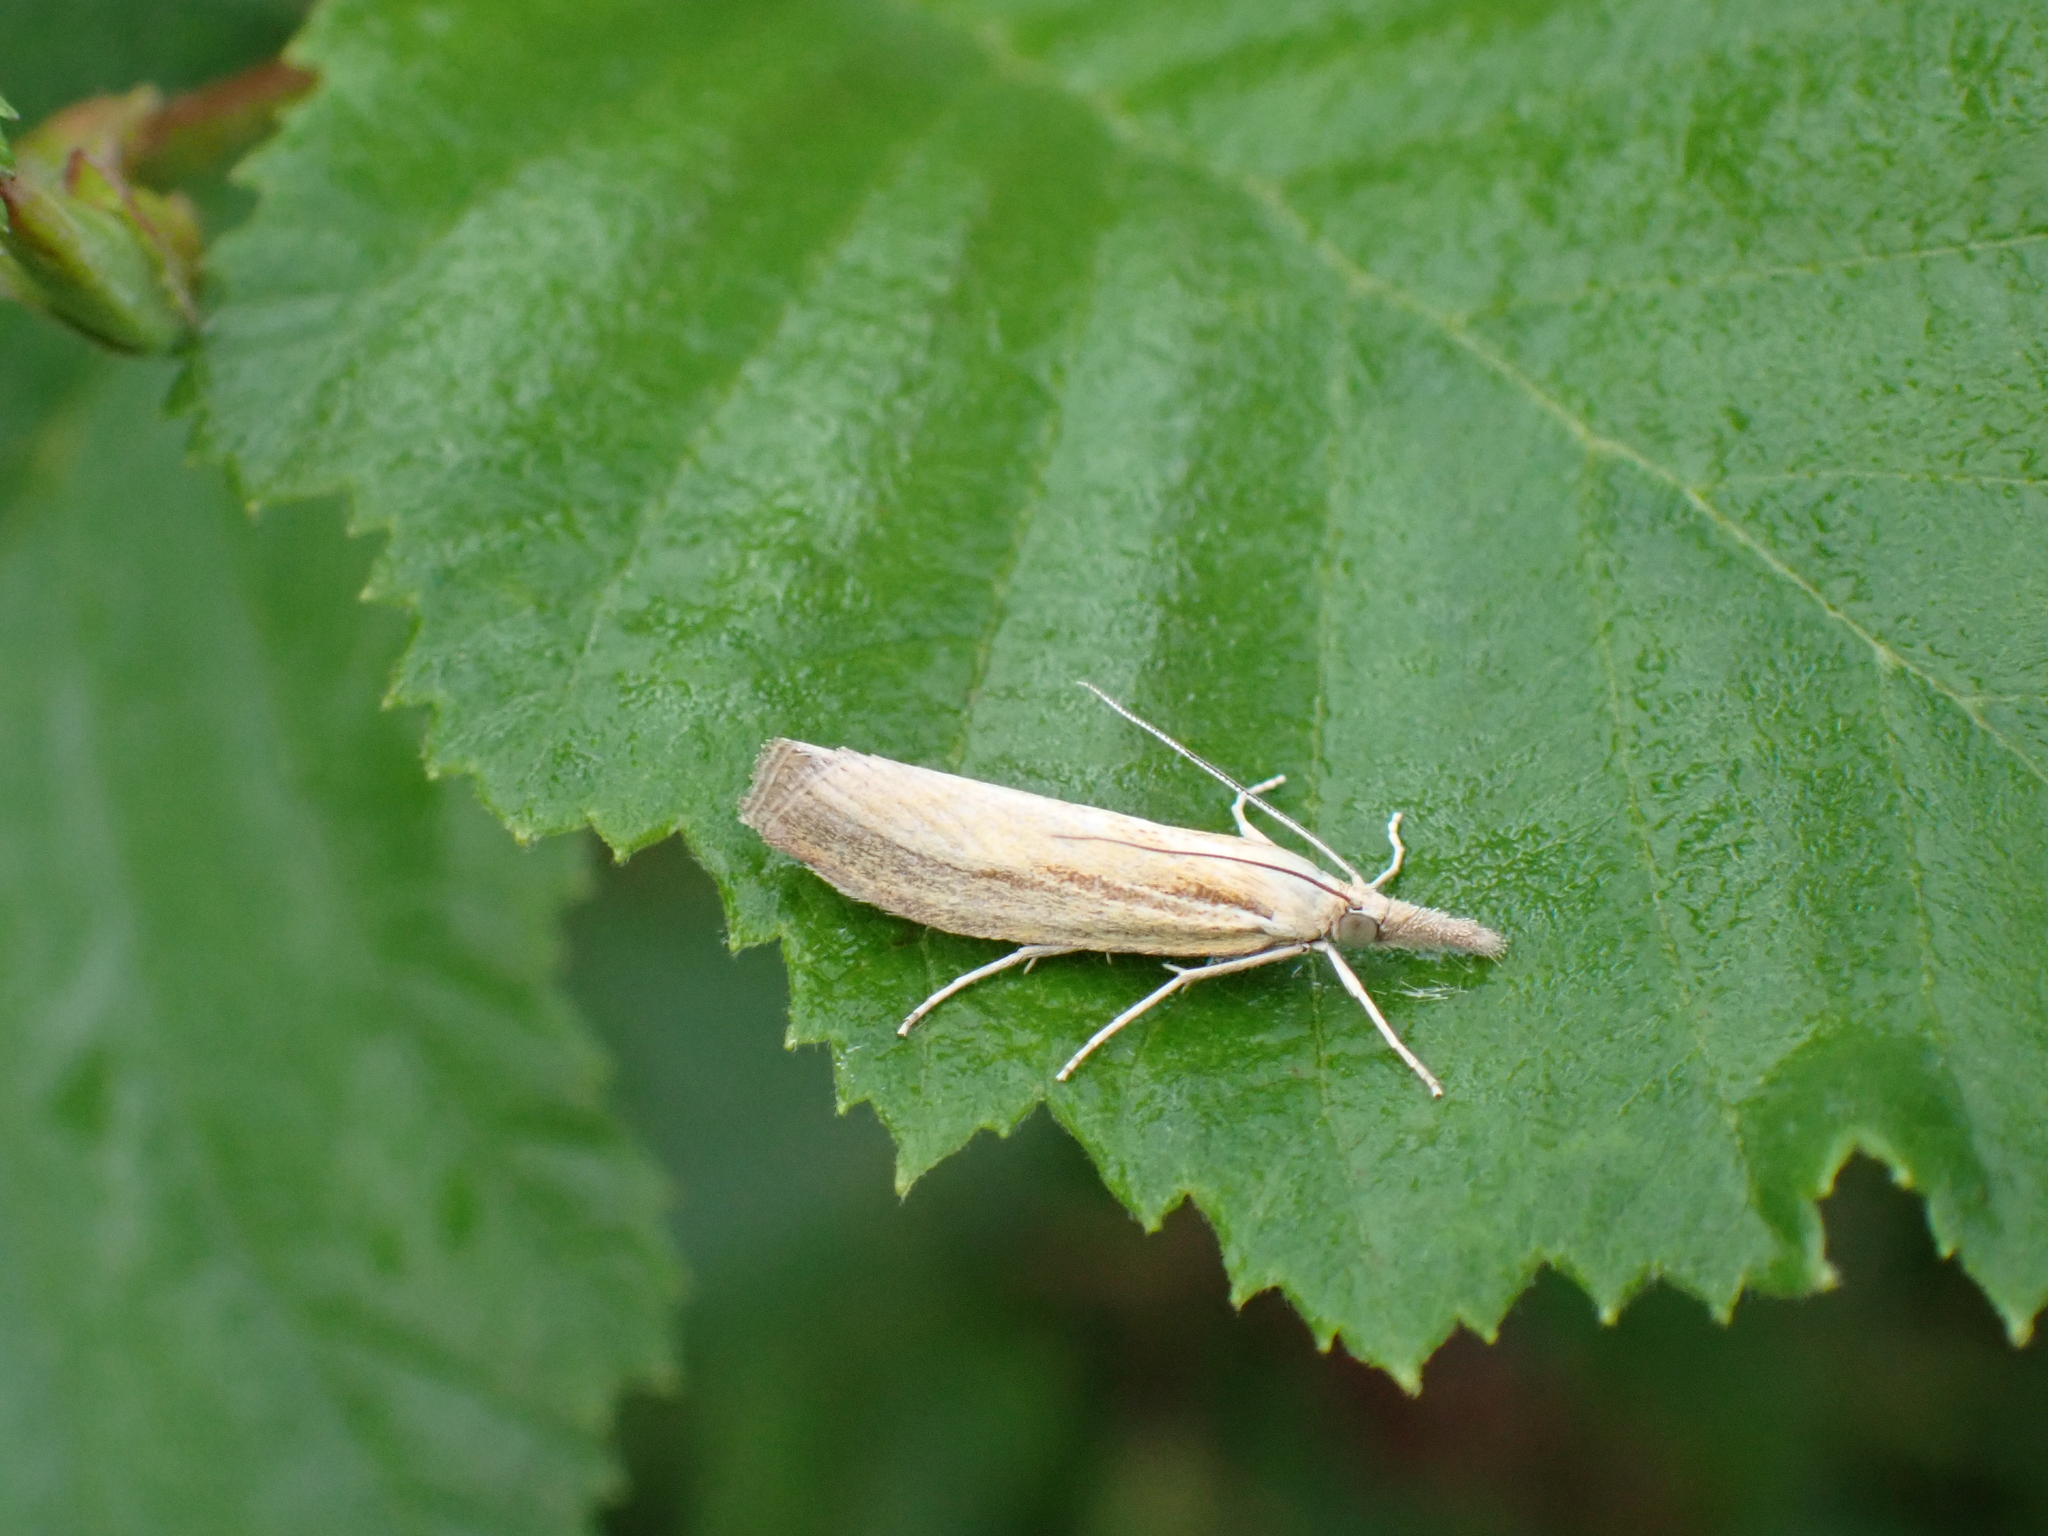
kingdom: Animalia
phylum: Arthropoda
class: Insecta
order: Lepidoptera
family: Crambidae
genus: Agriphila
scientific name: Agriphila tristellus
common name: Common grass-veneer
